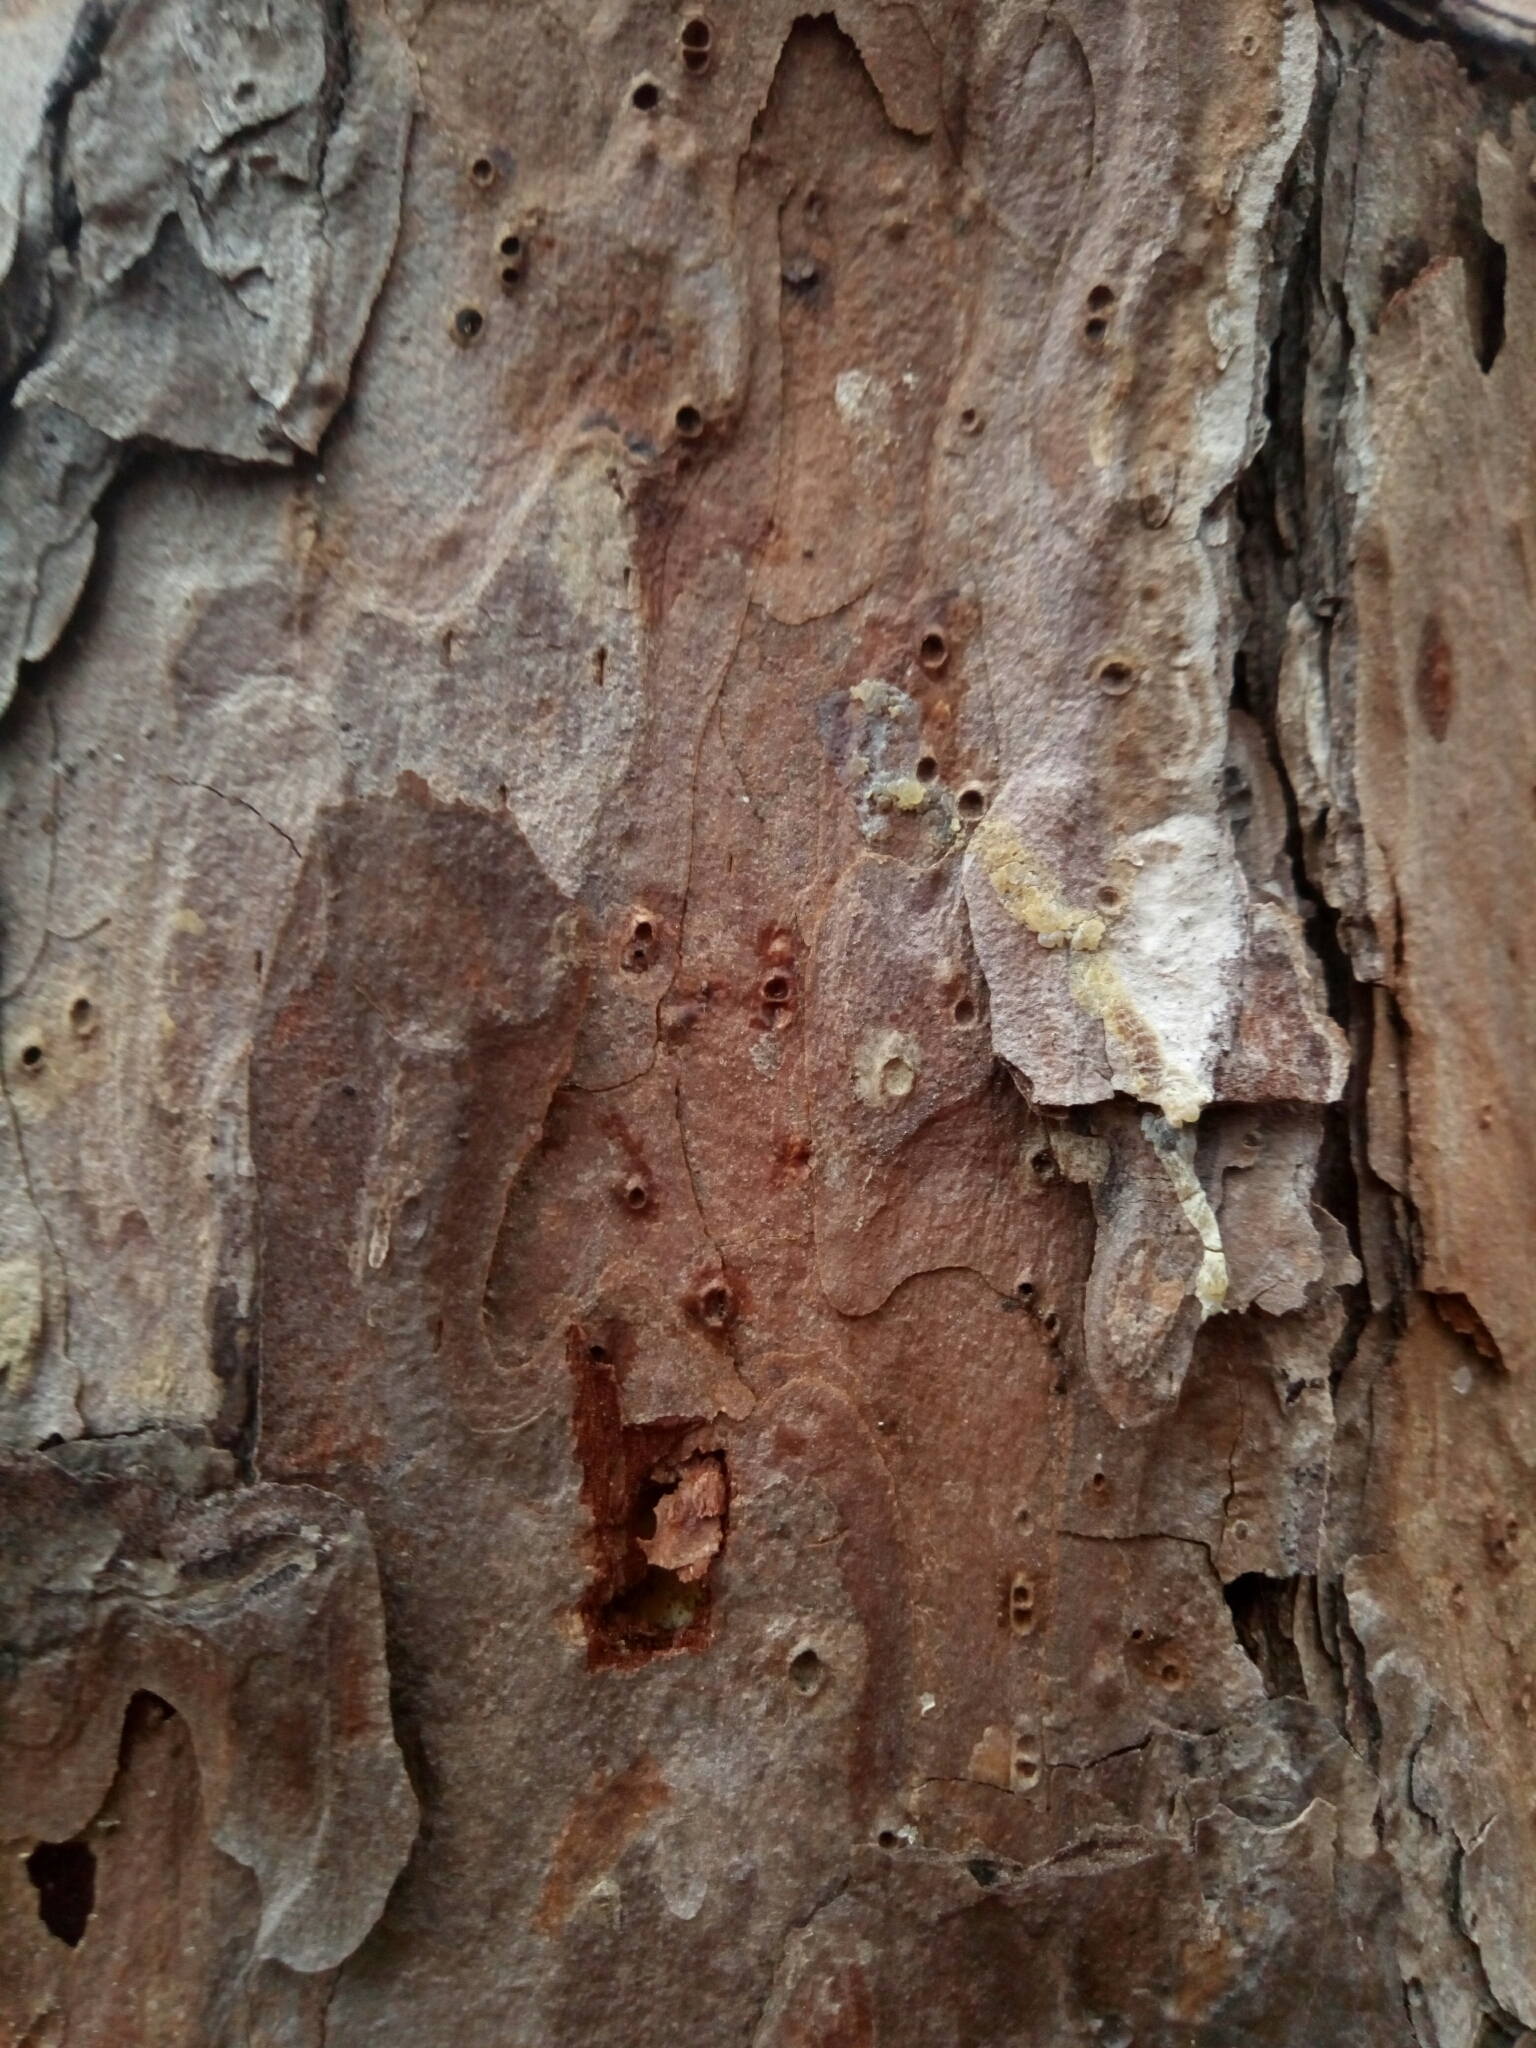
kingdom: Plantae
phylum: Tracheophyta
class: Pinopsida
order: Pinales
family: Pinaceae
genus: Pinus
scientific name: Pinus echinata
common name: Shortleaf pine
